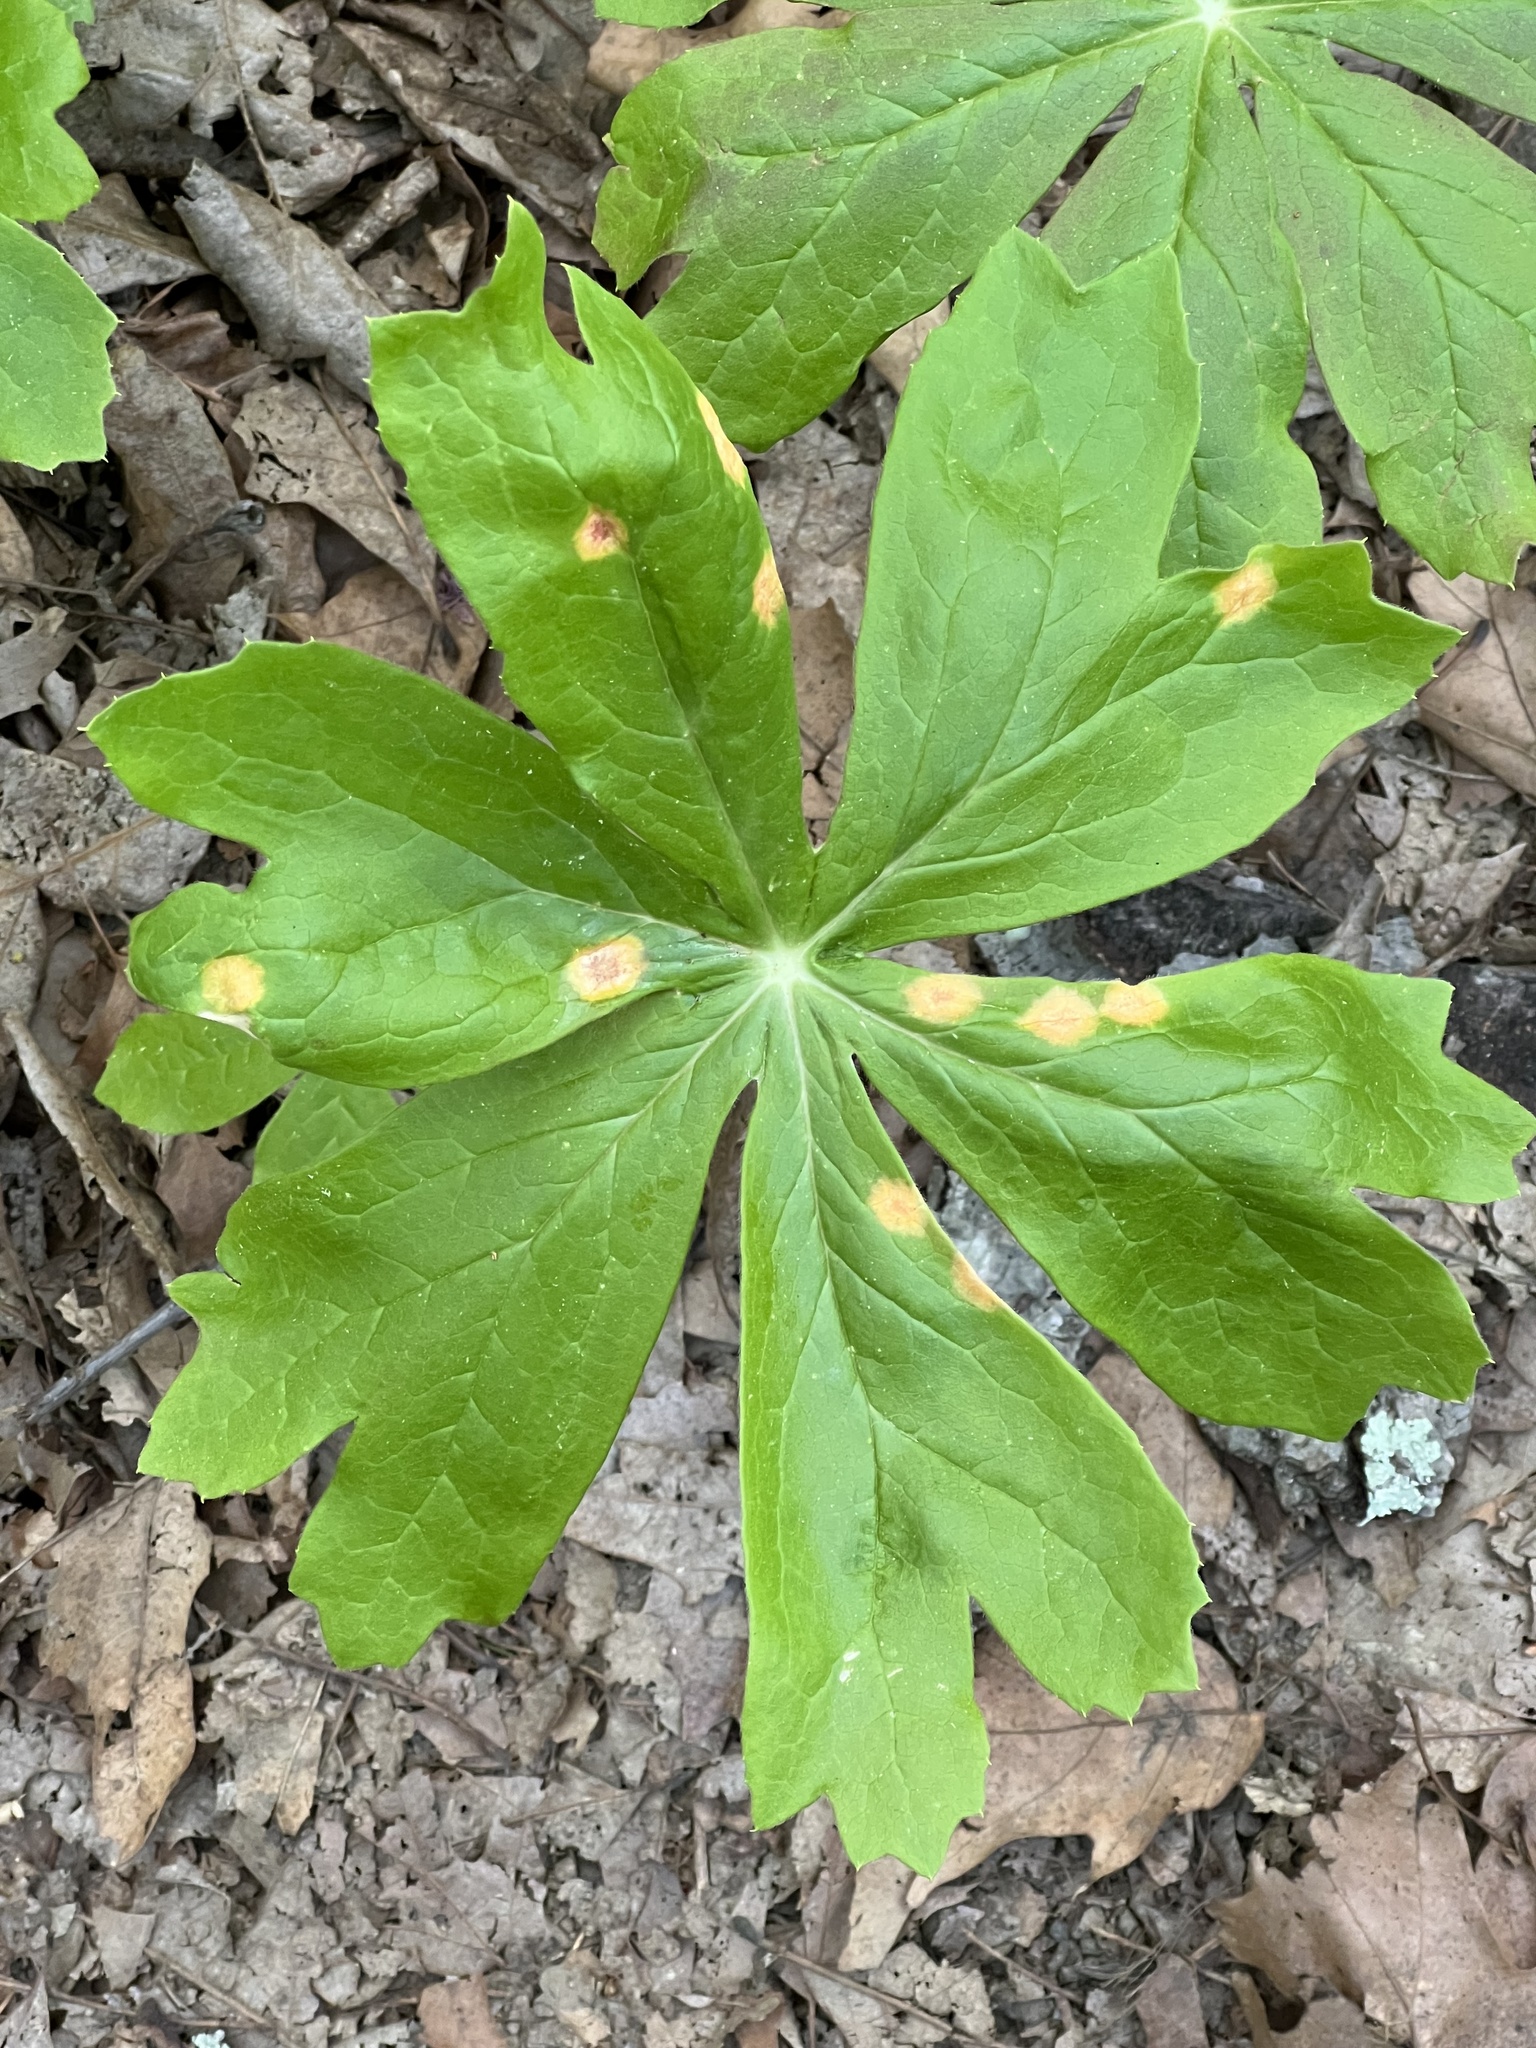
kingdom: Fungi
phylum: Basidiomycota
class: Pucciniomycetes
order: Pucciniales
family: Pucciniaceae
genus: Puccinia
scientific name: Puccinia podophylli
